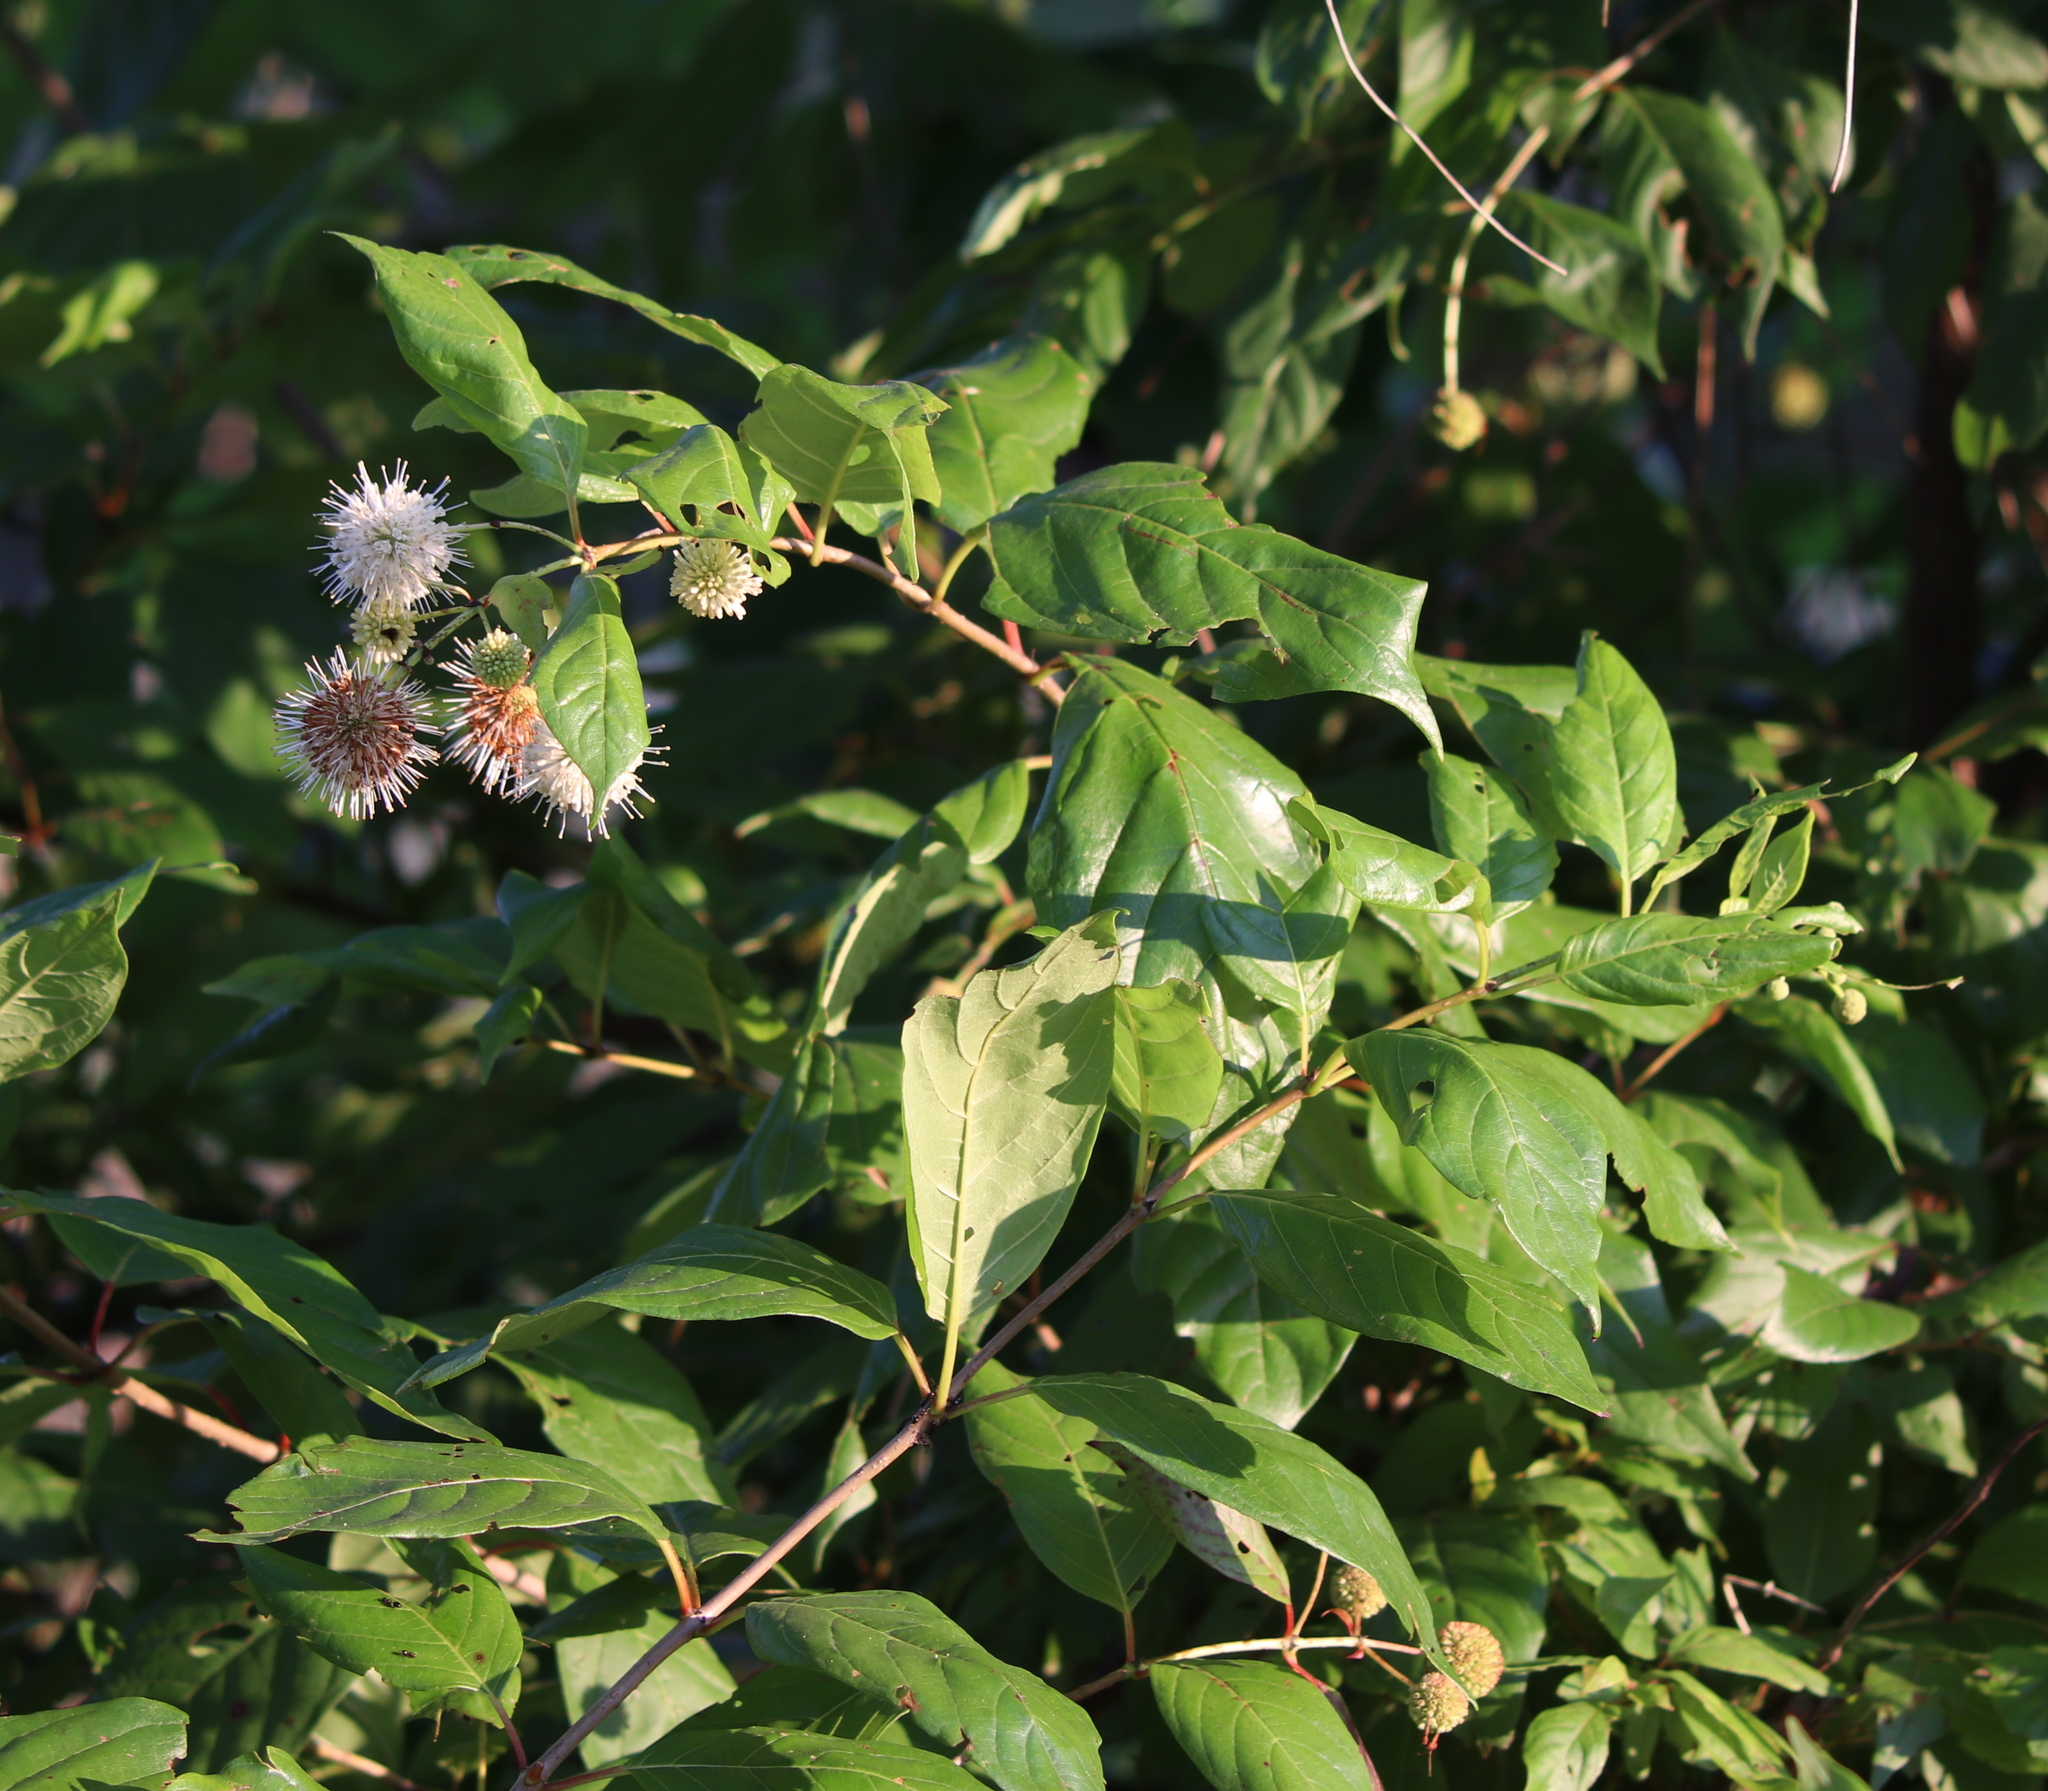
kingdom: Plantae
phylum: Tracheophyta
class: Magnoliopsida
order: Gentianales
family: Rubiaceae
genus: Cephalanthus
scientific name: Cephalanthus occidentalis
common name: Button-willow
